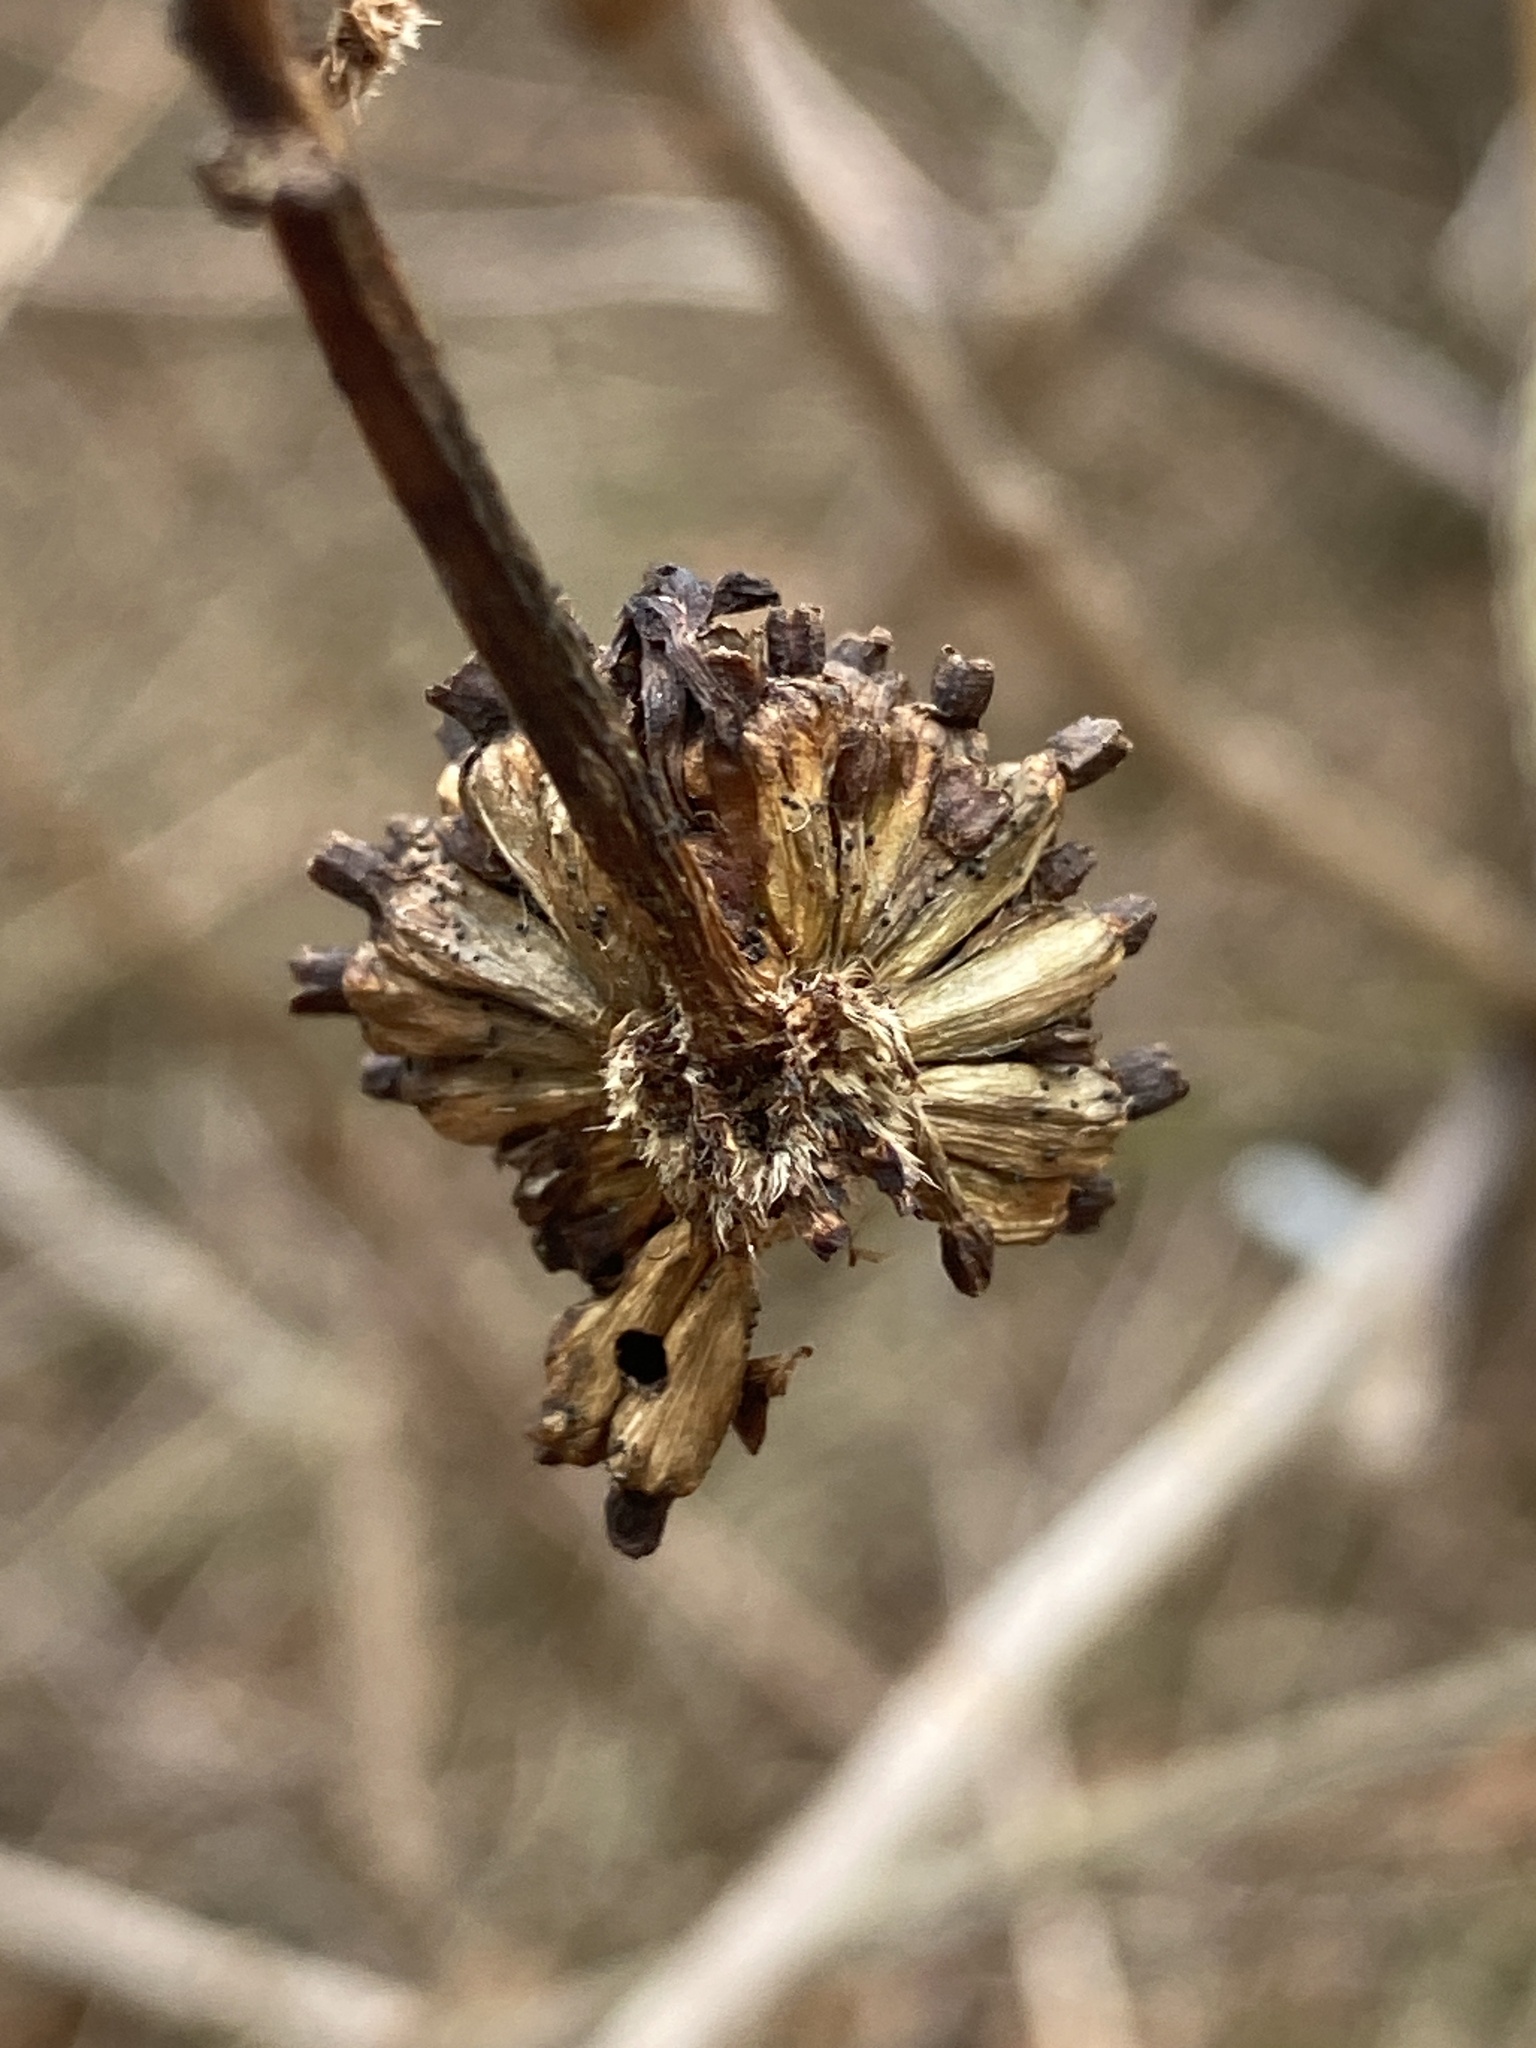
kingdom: Plantae
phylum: Tracheophyta
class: Magnoliopsida
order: Gentianales
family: Rubiaceae
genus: Cephalanthus
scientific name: Cephalanthus occidentalis
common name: Button-willow
